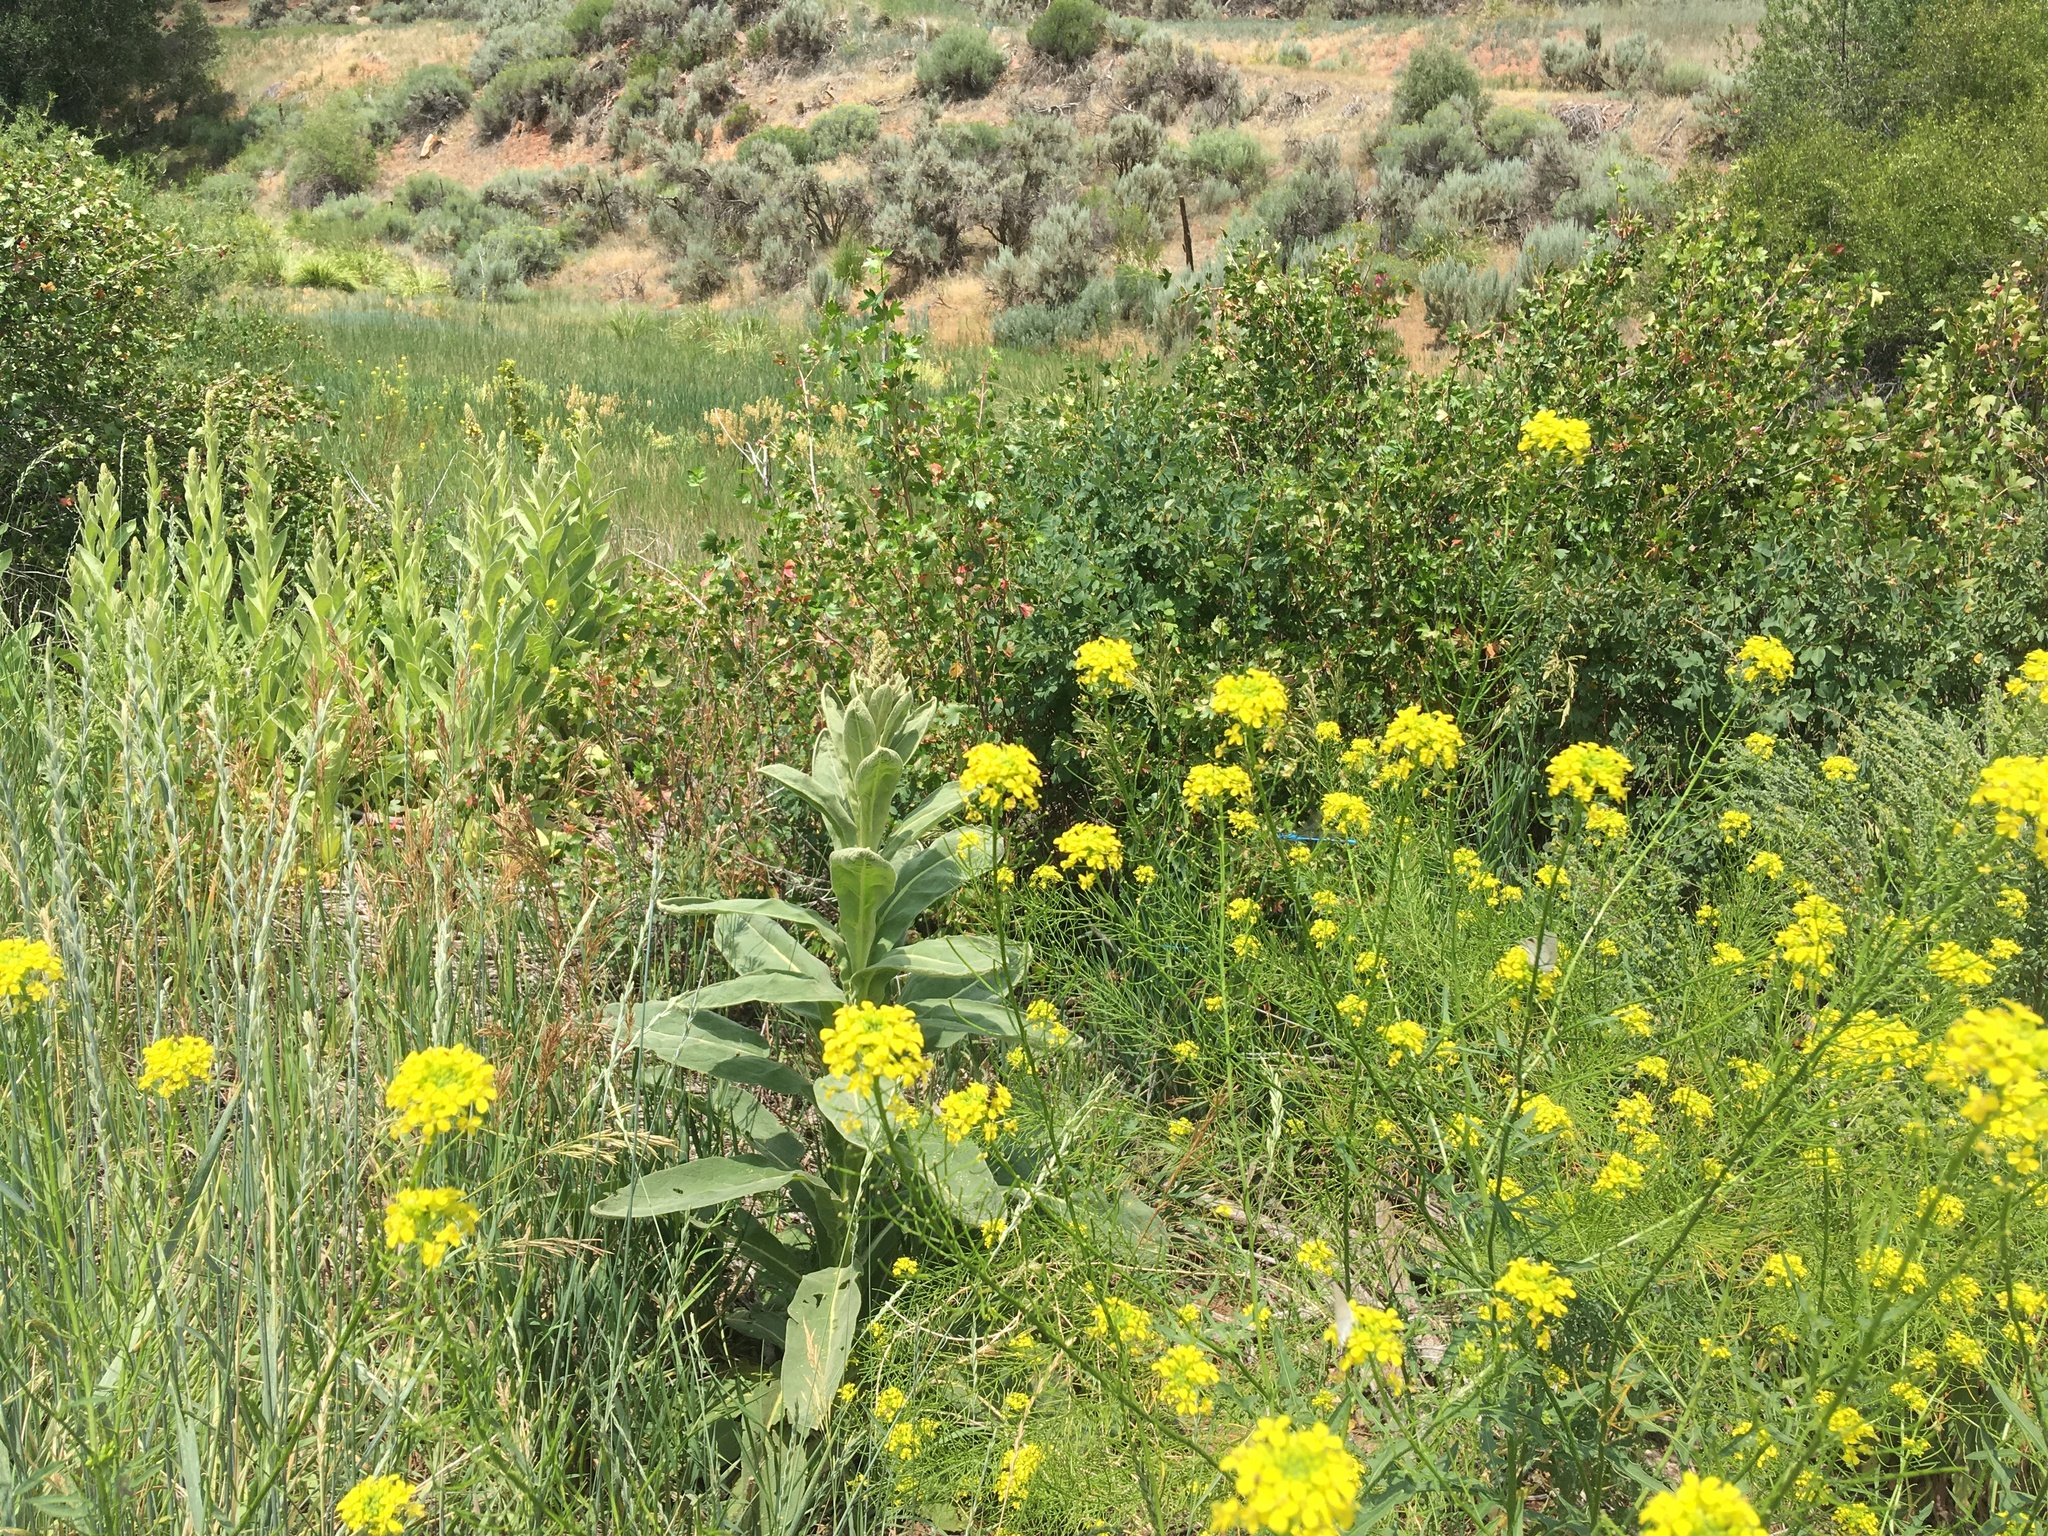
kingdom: Plantae
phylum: Tracheophyta
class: Magnoliopsida
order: Lamiales
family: Scrophulariaceae
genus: Verbascum
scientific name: Verbascum thapsus
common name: Common mullein
